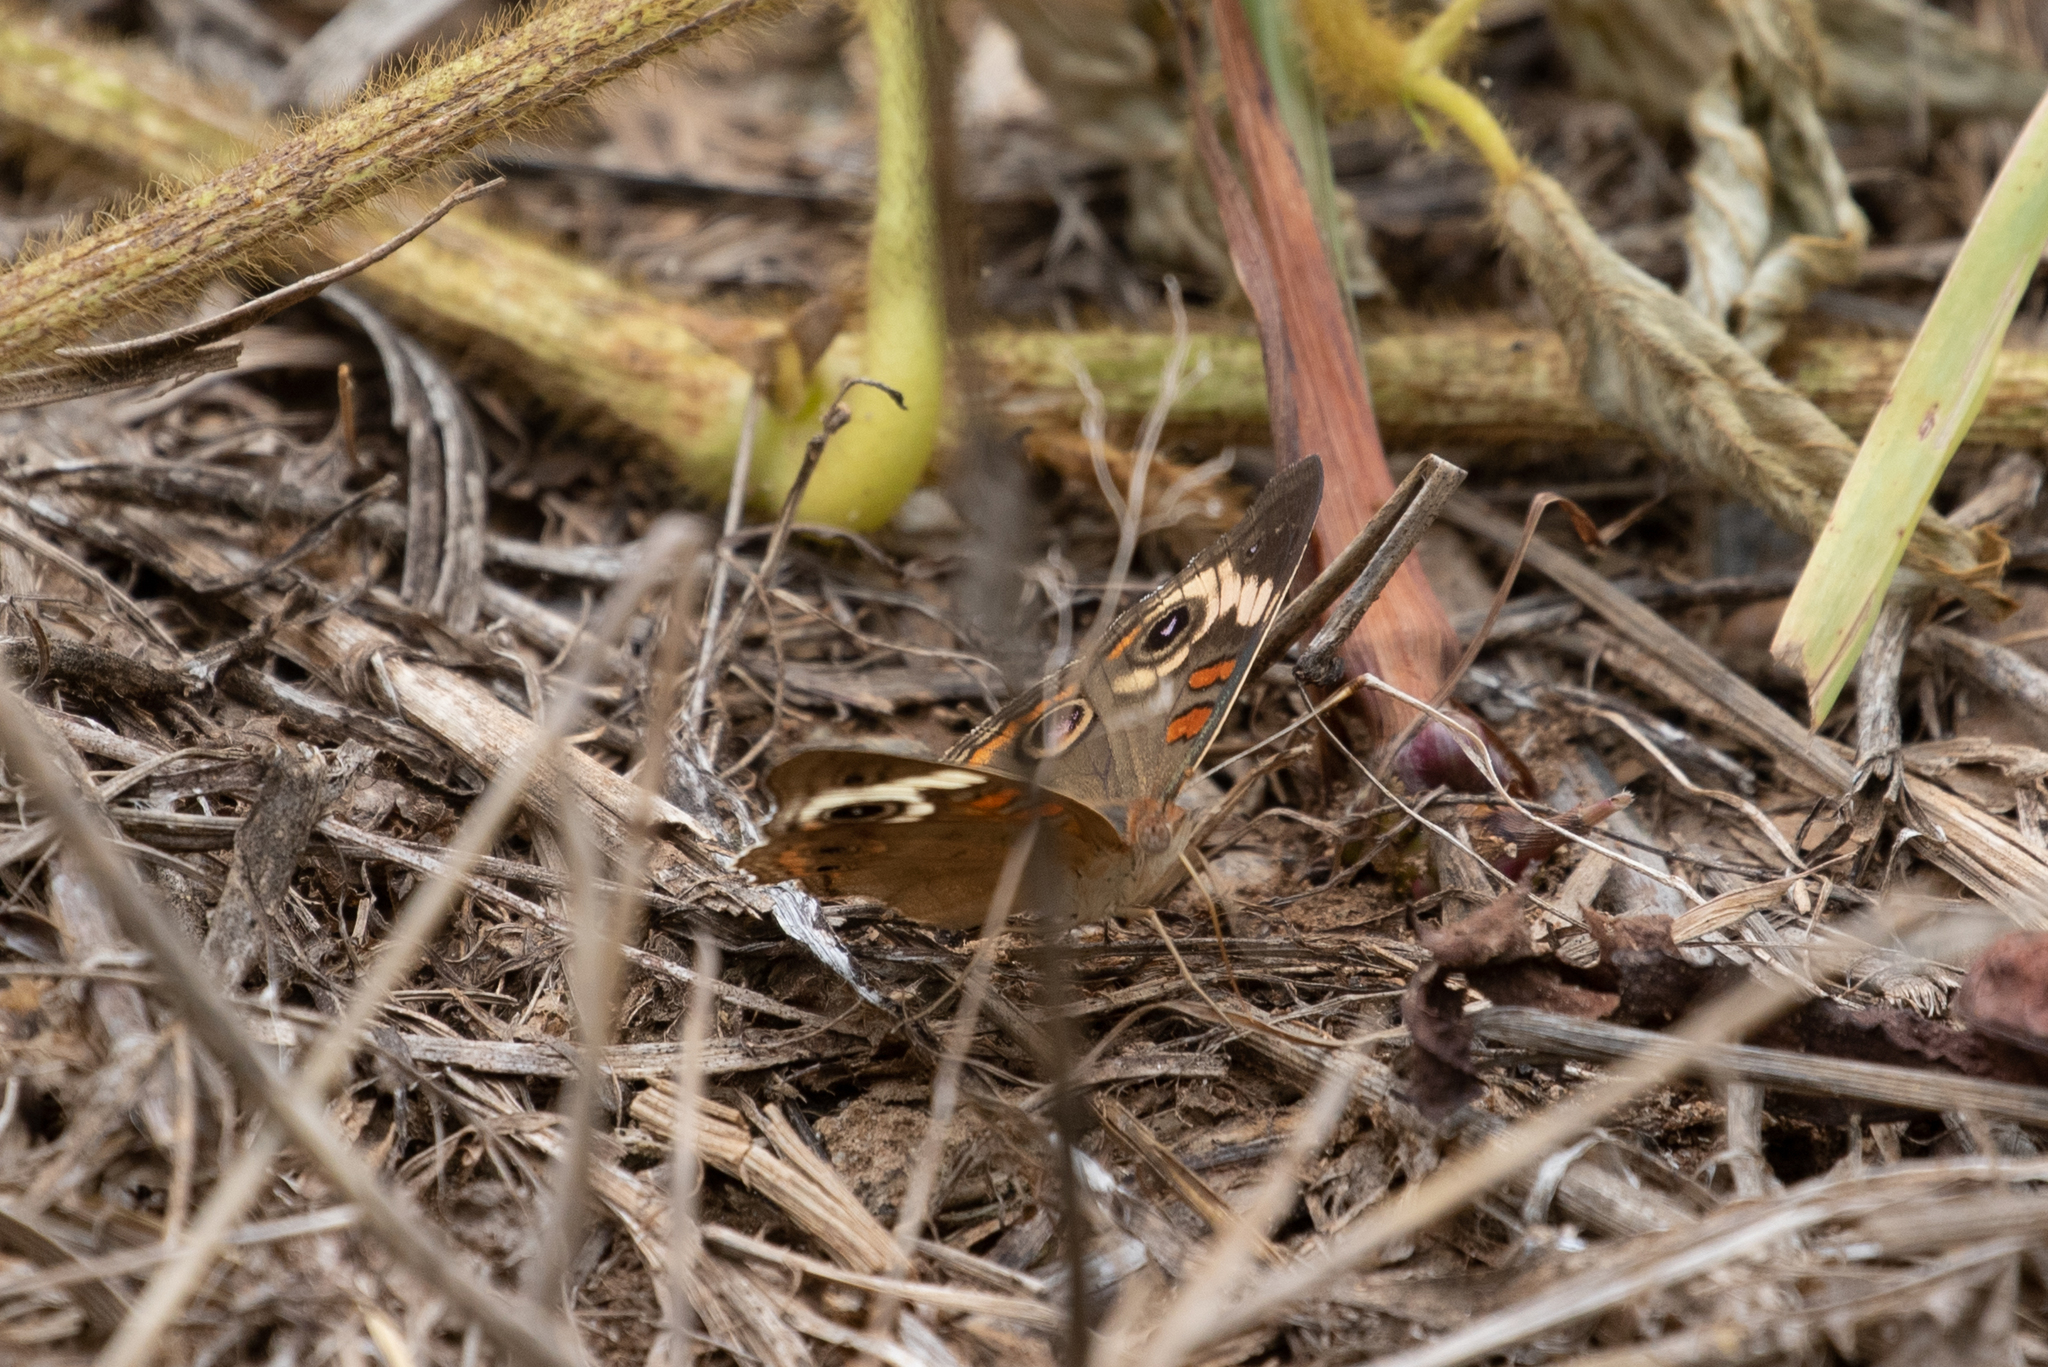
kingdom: Animalia
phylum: Arthropoda
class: Insecta
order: Lepidoptera
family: Nymphalidae
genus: Junonia
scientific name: Junonia coenia
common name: Common buckeye
